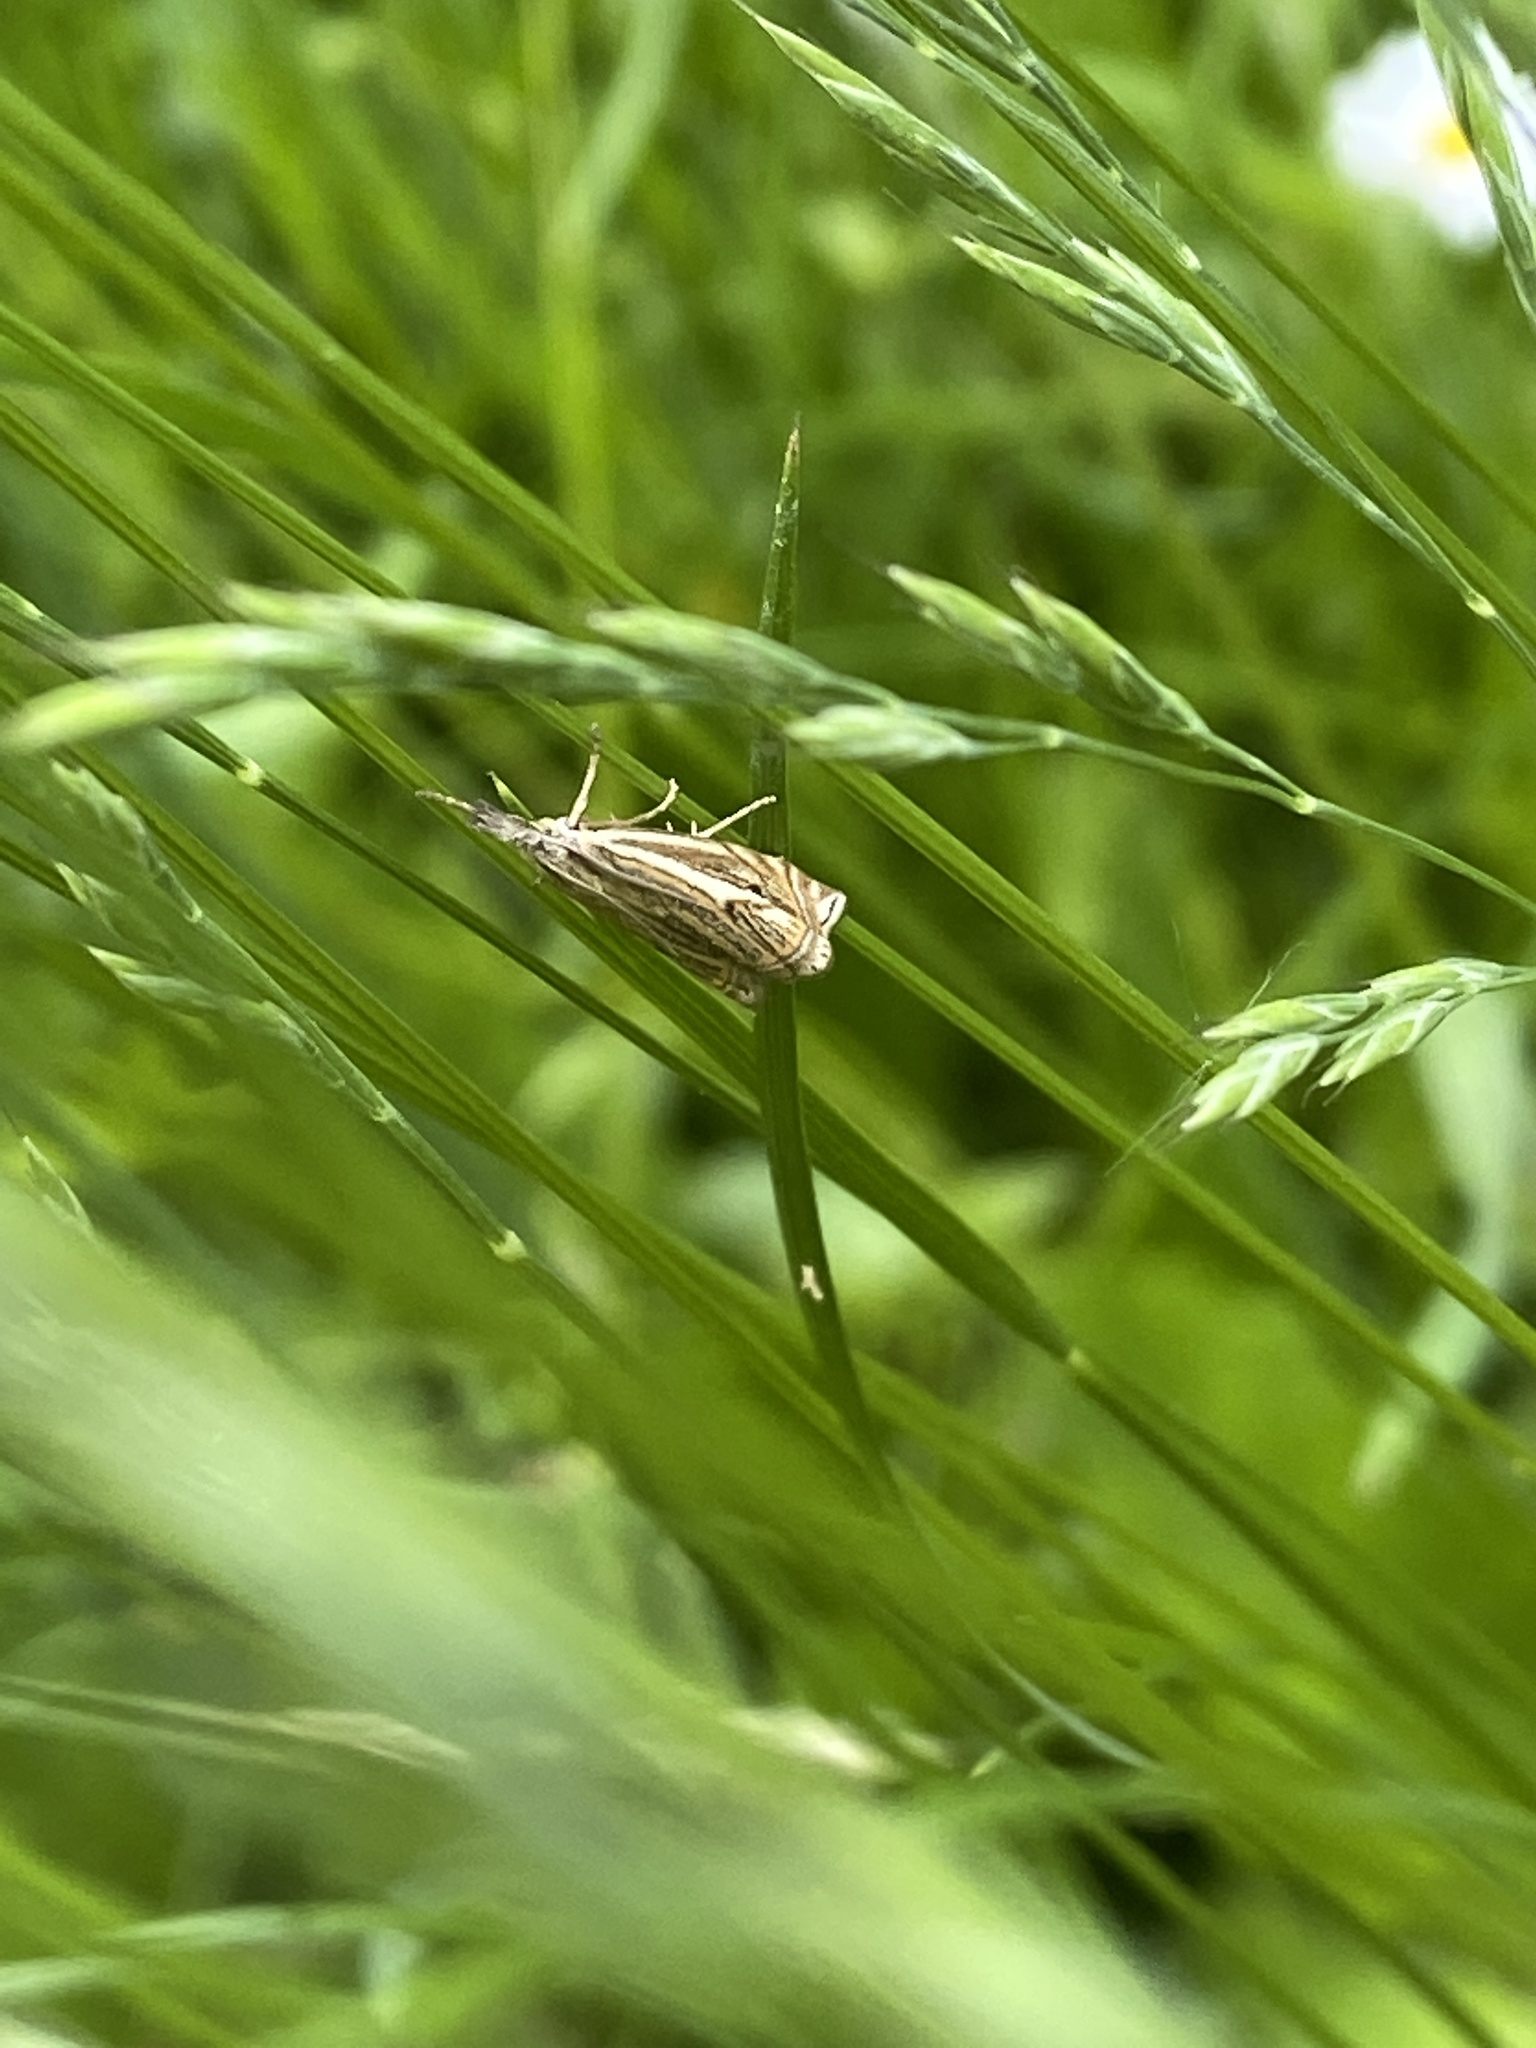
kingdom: Animalia
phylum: Arthropoda
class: Insecta
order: Lepidoptera
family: Crambidae
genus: Crambus
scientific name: Crambus nemorella
